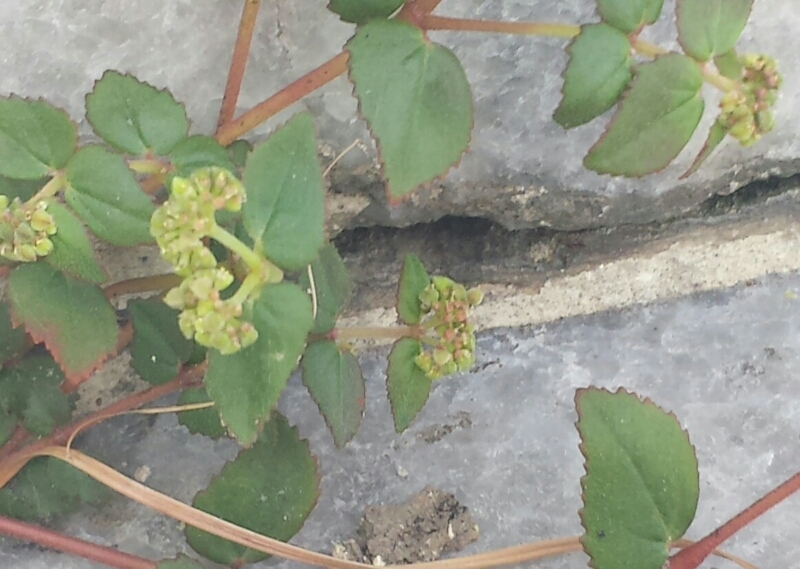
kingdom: Plantae
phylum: Tracheophyta
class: Magnoliopsida
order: Malpighiales
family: Euphorbiaceae
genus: Euphorbia
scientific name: Euphorbia ophthalmica
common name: Florida hammock sandmat
